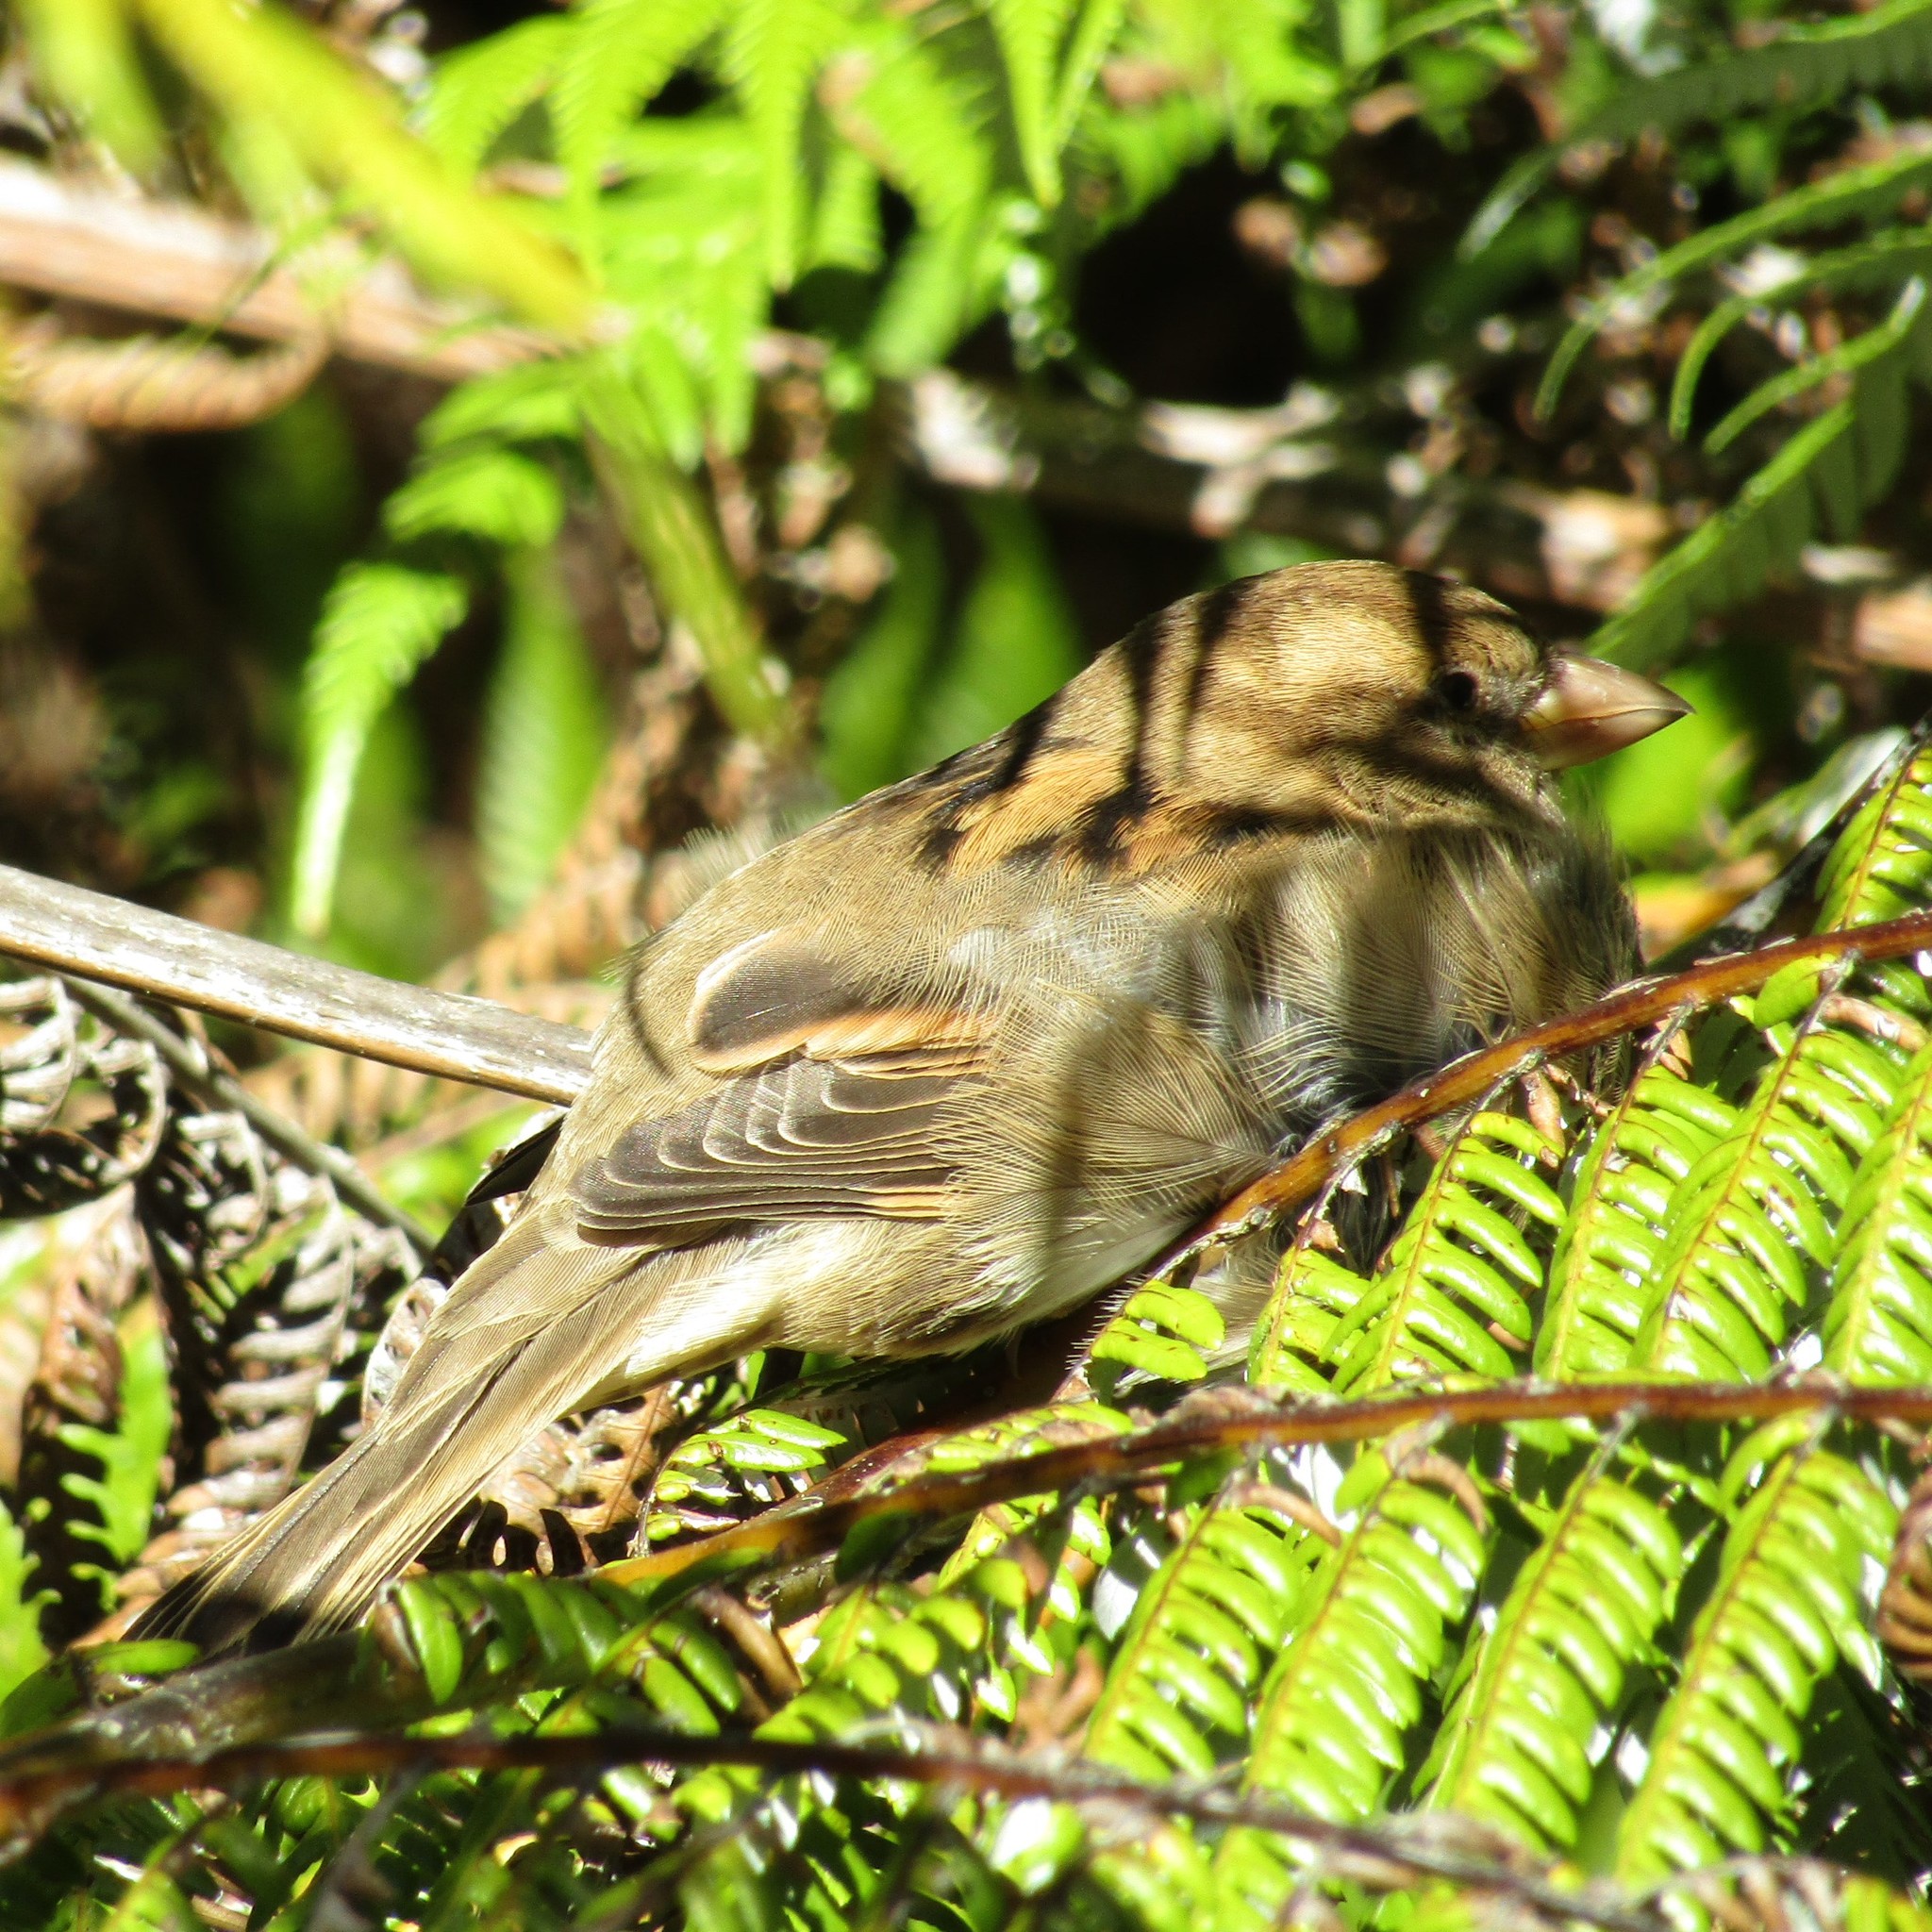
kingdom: Animalia
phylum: Chordata
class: Aves
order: Passeriformes
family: Passeridae
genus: Passer
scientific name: Passer domesticus
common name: House sparrow
